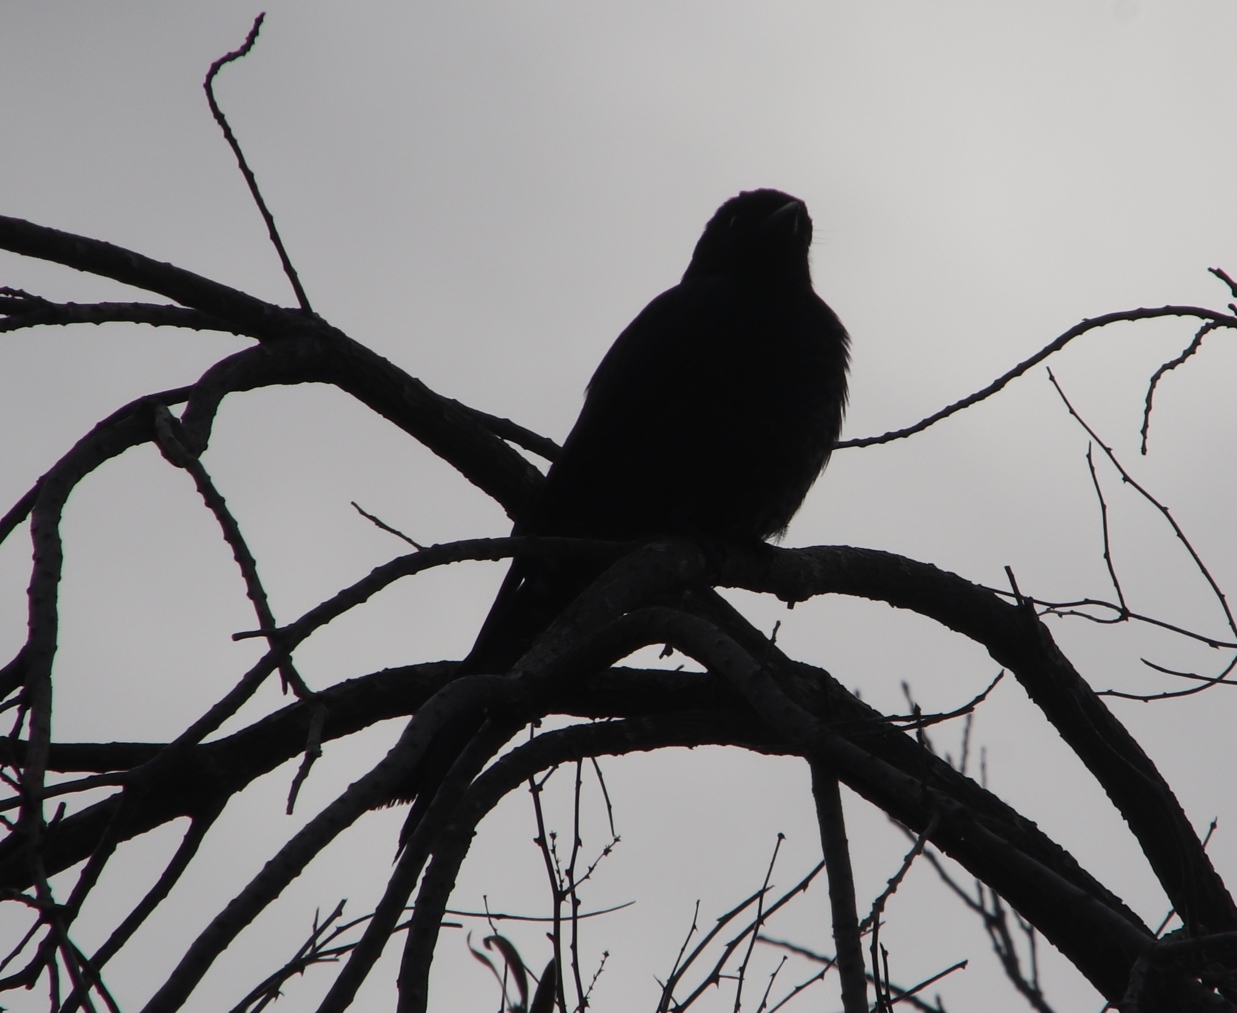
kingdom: Animalia
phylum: Chordata
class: Aves
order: Passeriformes
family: Dicruridae
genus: Dicrurus
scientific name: Dicrurus adsimilis
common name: Fork-tailed drongo
